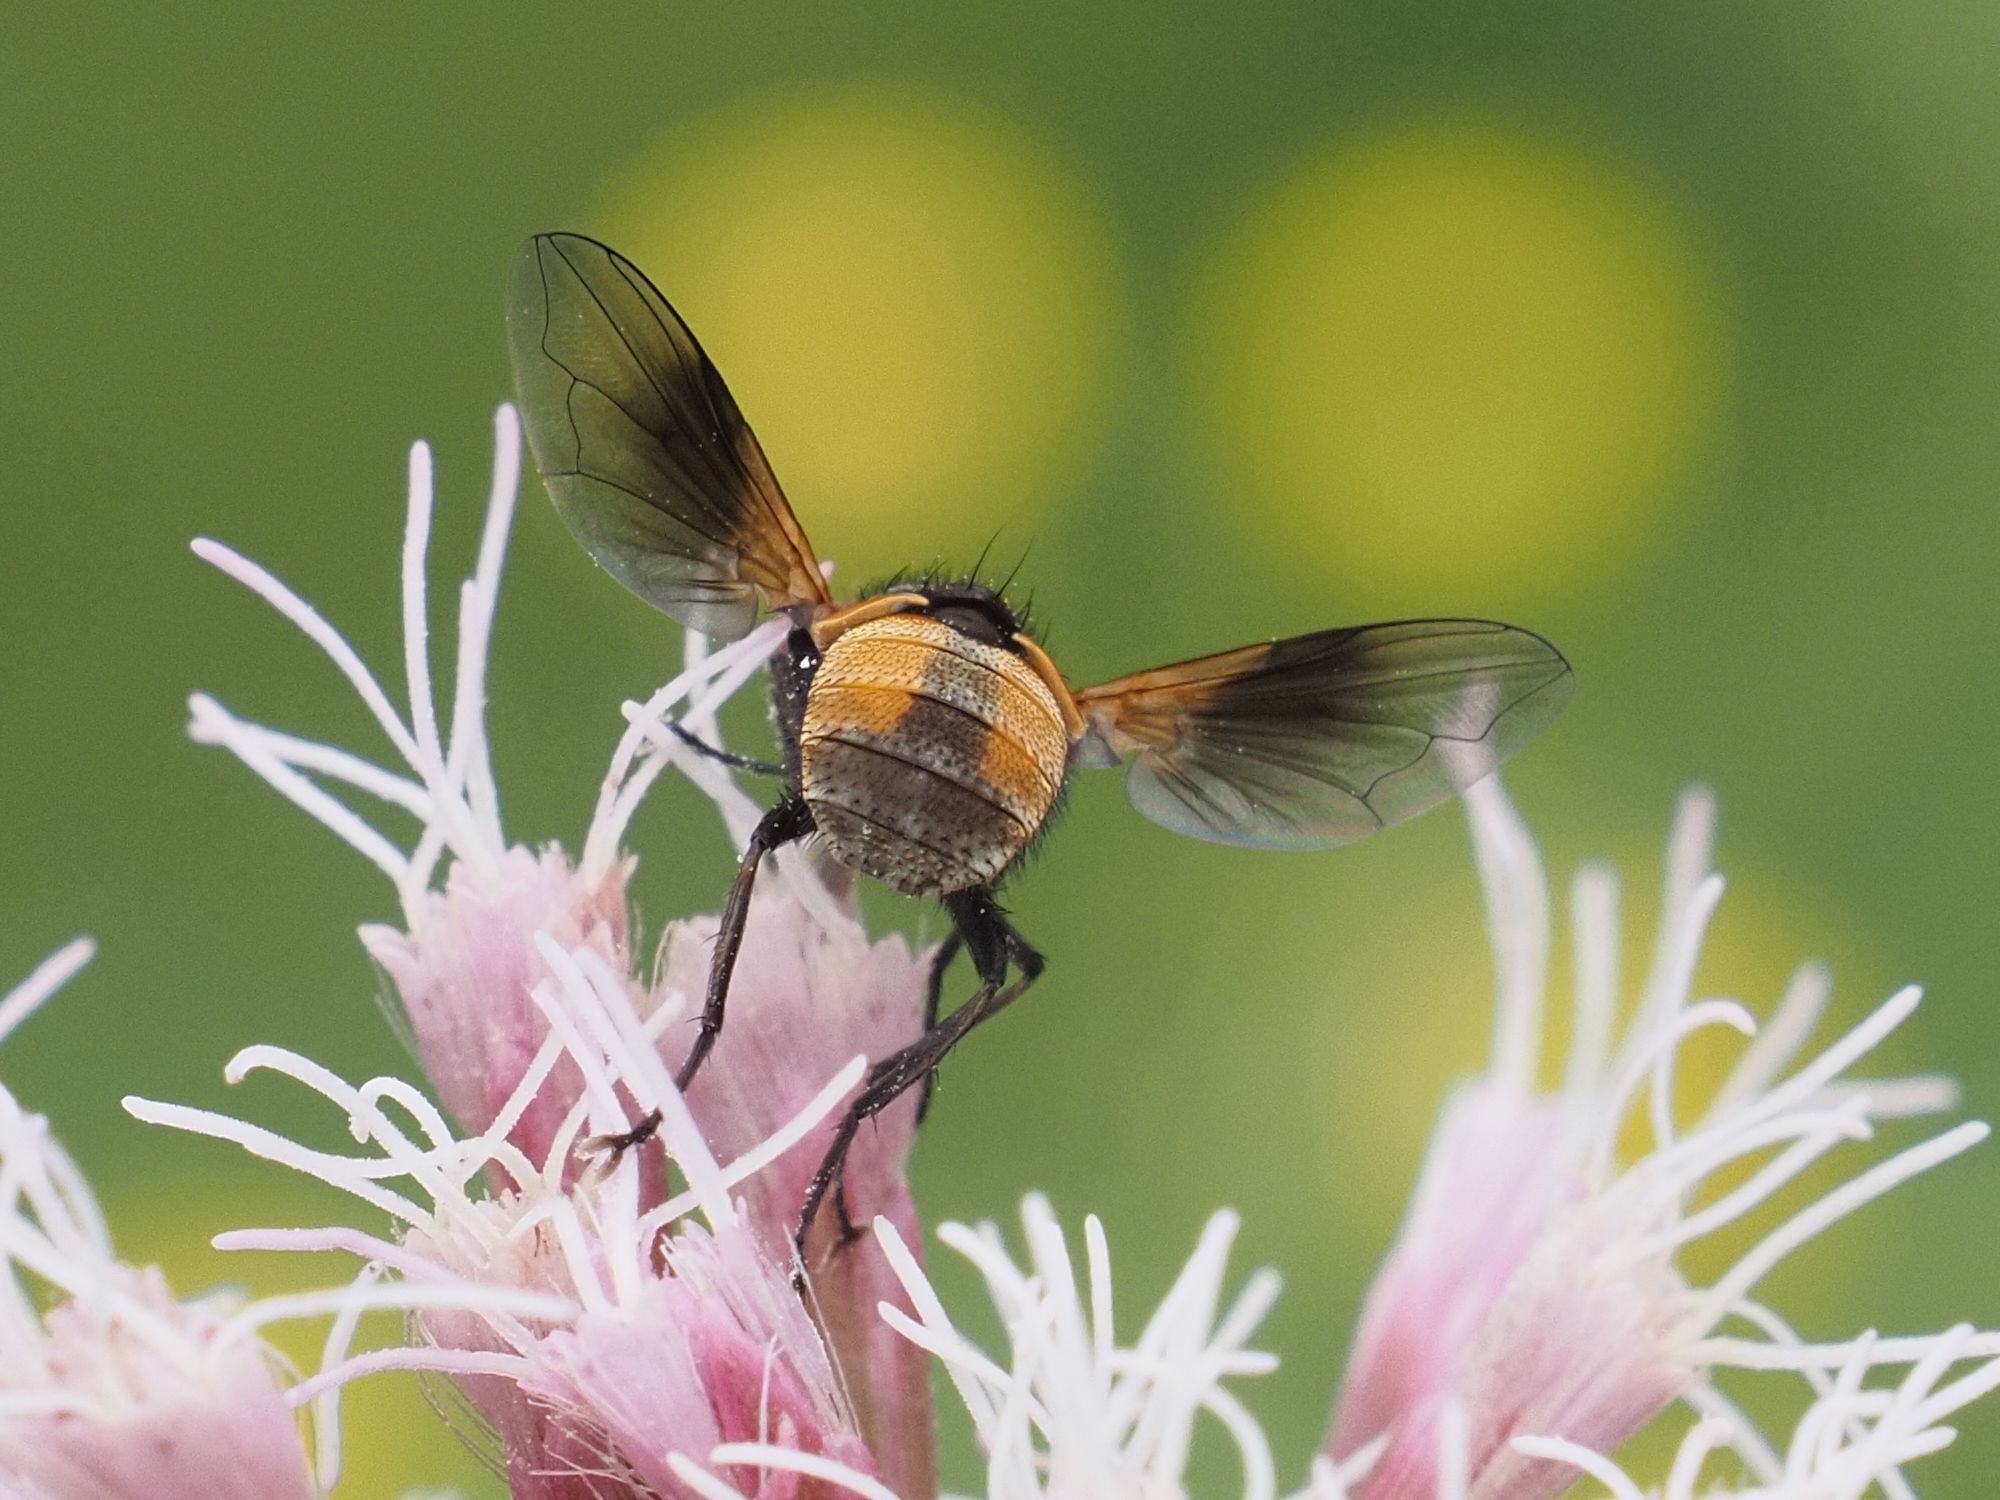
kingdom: Animalia
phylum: Arthropoda
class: Insecta
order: Lepidoptera
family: Nymphalidae
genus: Aglais
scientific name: Aglais urticae
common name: Small tortoiseshell
